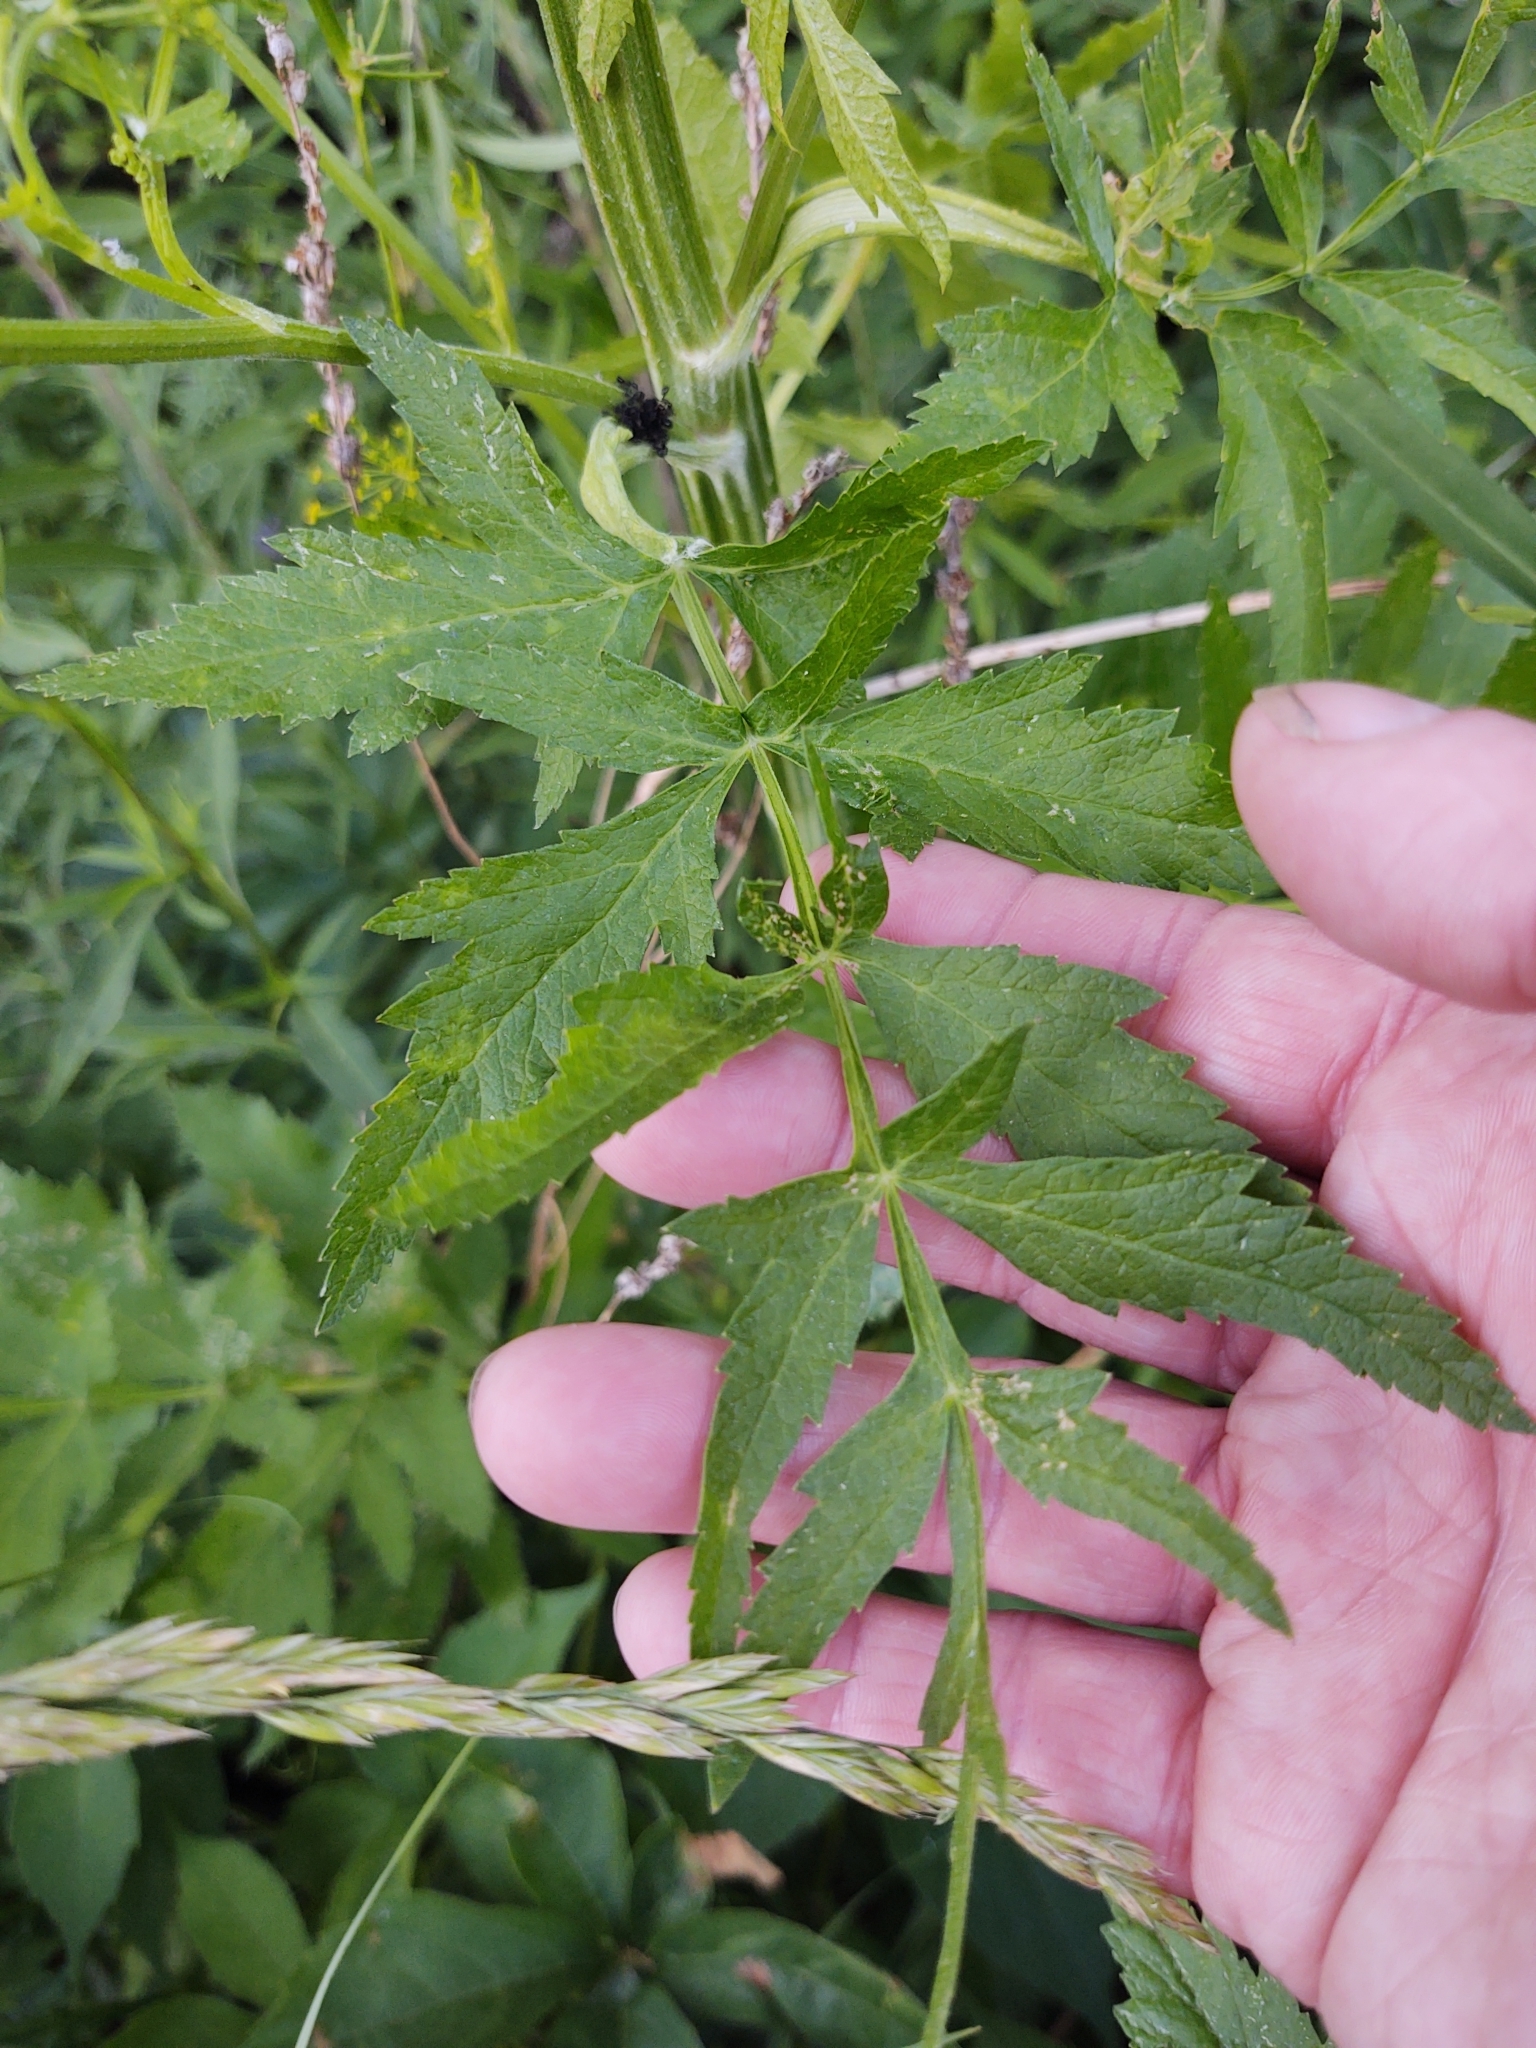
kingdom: Plantae
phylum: Tracheophyta
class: Magnoliopsida
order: Apiales
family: Apiaceae
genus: Pastinaca
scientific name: Pastinaca sativa
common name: Wild parsnip
